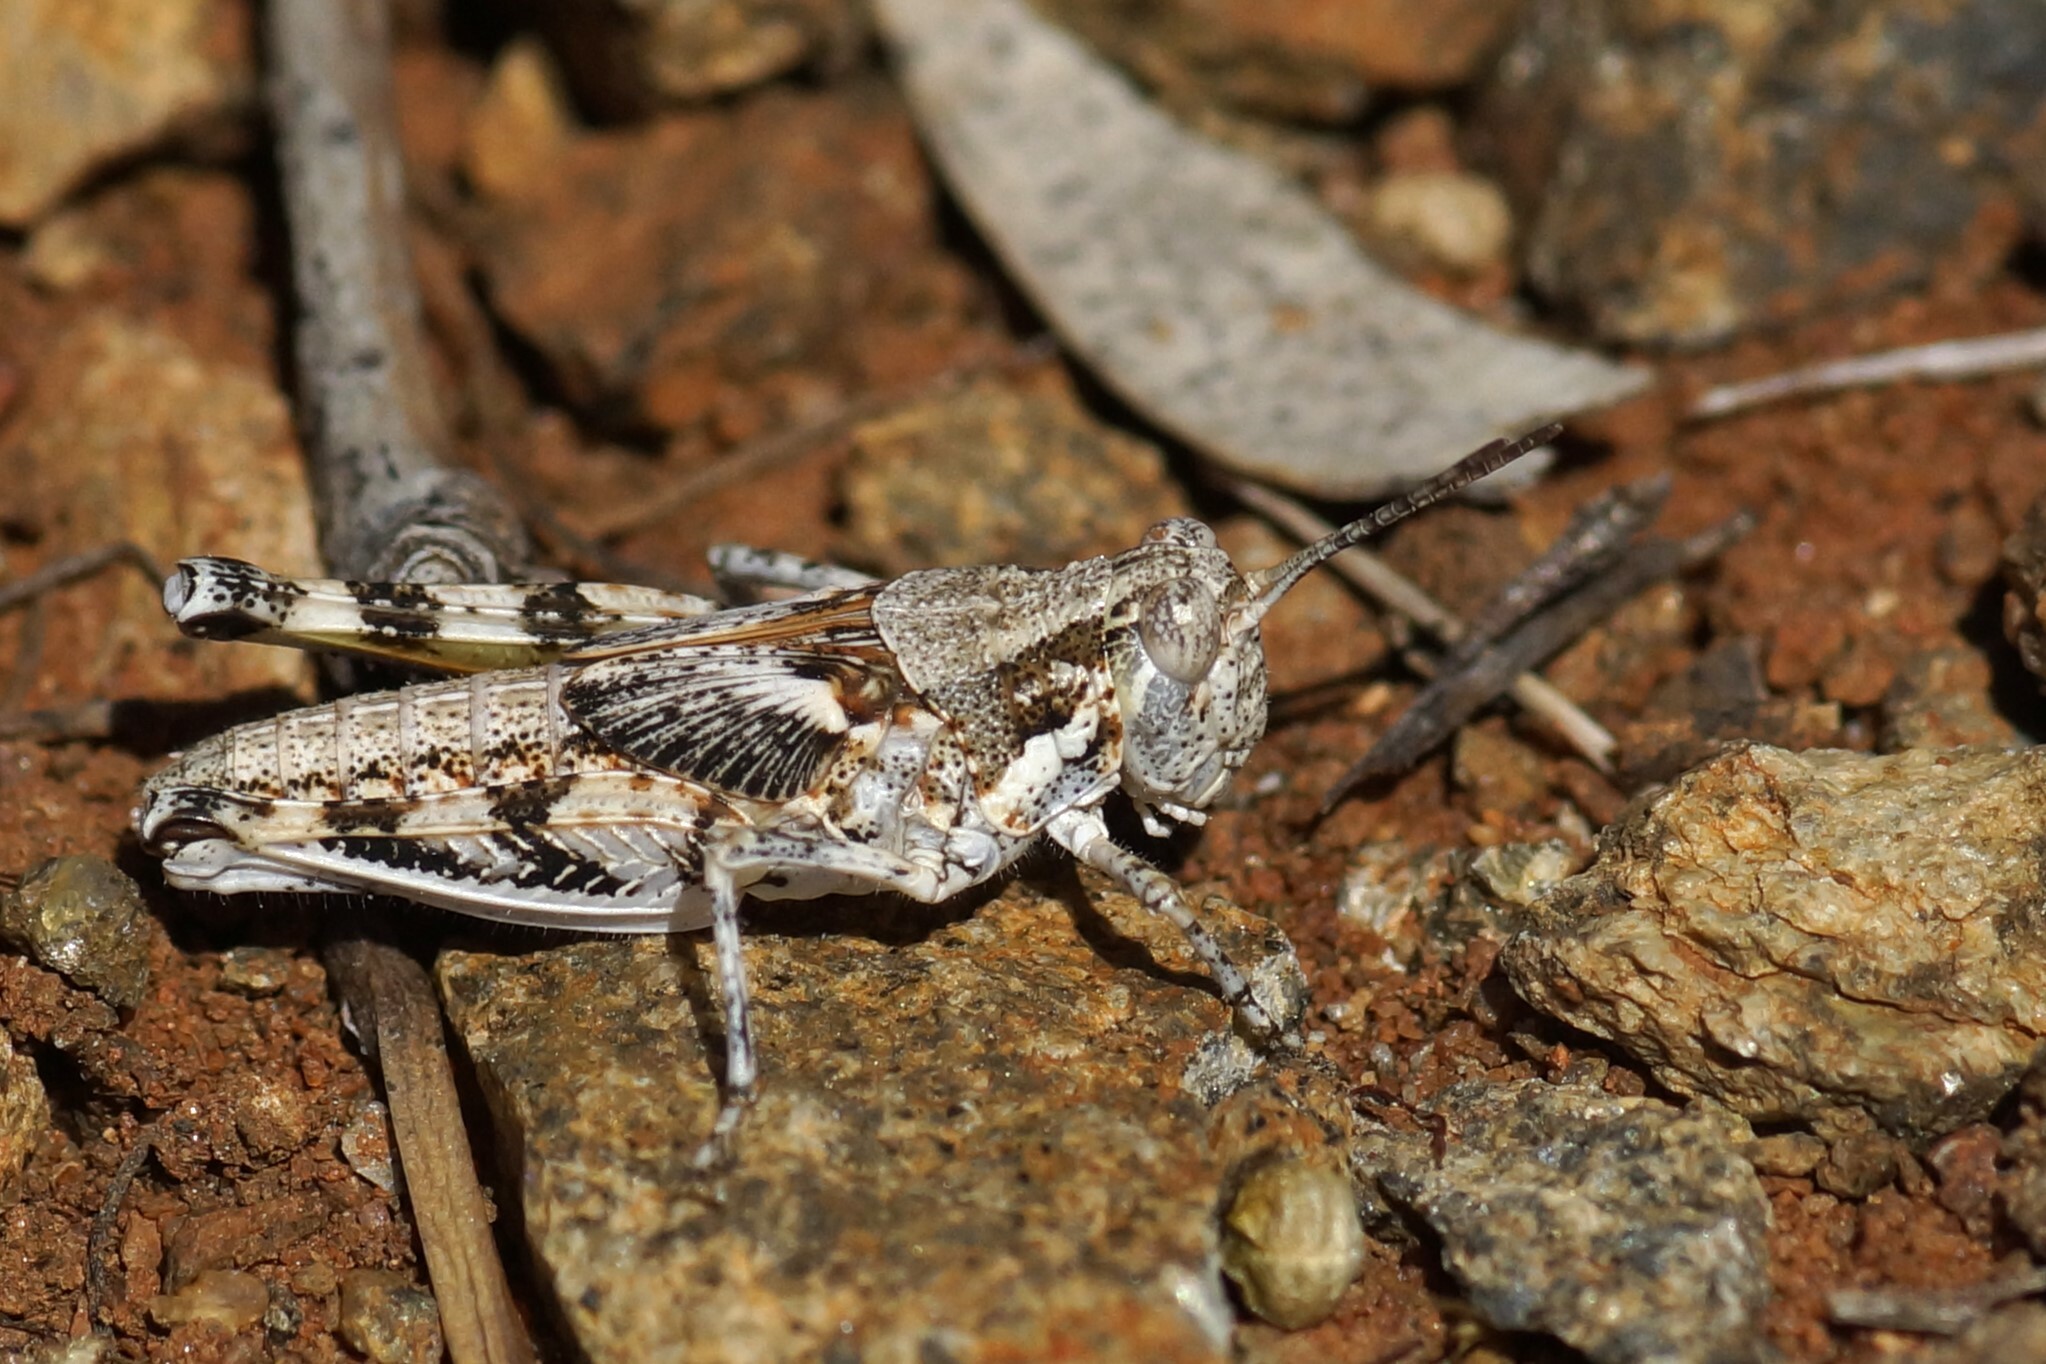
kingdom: Animalia
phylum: Arthropoda
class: Insecta
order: Orthoptera
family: Acrididae
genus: Urnisa
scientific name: Urnisa guttulosa
